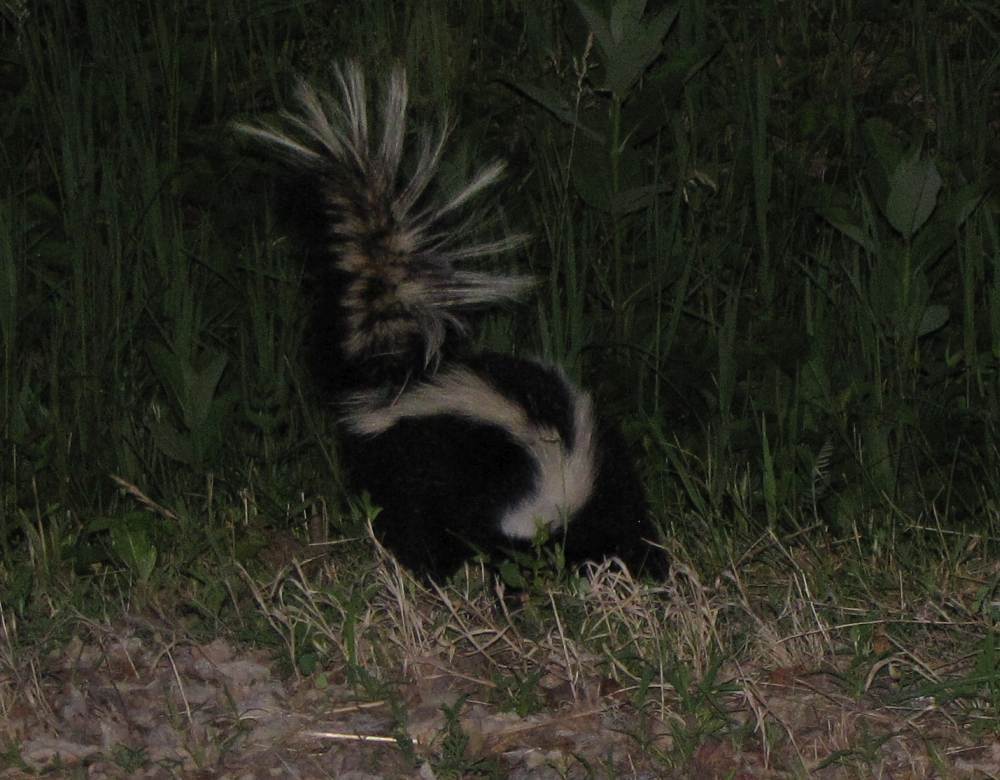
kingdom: Animalia
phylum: Chordata
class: Mammalia
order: Carnivora
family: Mephitidae
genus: Mephitis
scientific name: Mephitis mephitis
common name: Striped skunk
